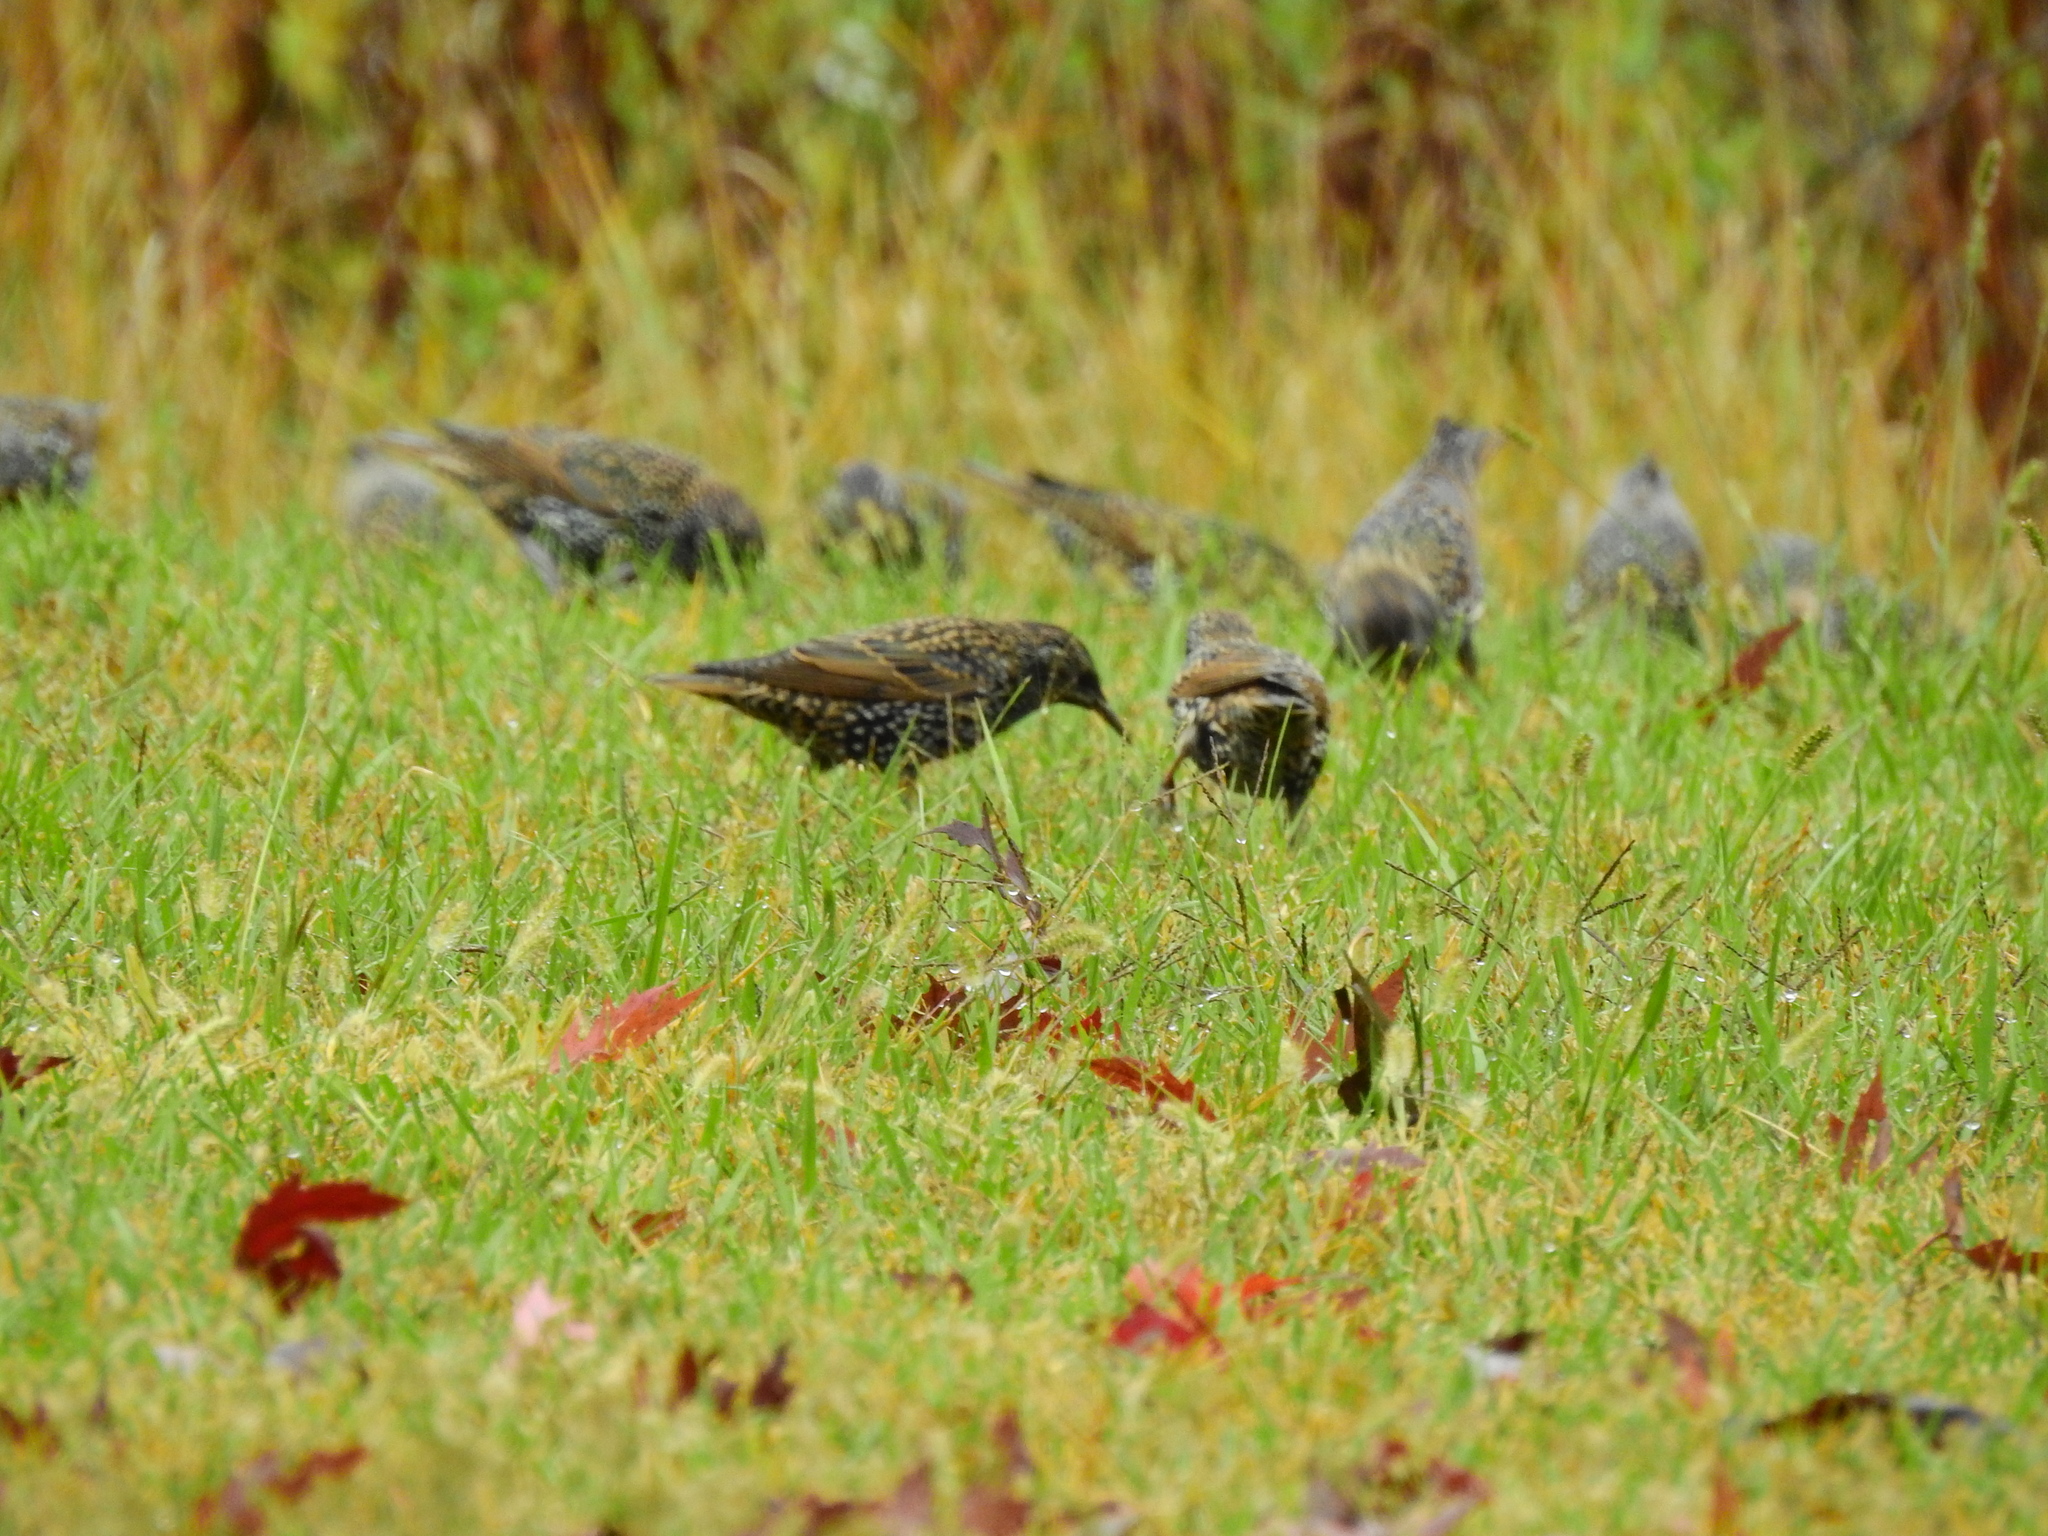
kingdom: Animalia
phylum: Chordata
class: Aves
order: Passeriformes
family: Sturnidae
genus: Sturnus
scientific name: Sturnus vulgaris
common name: Common starling
